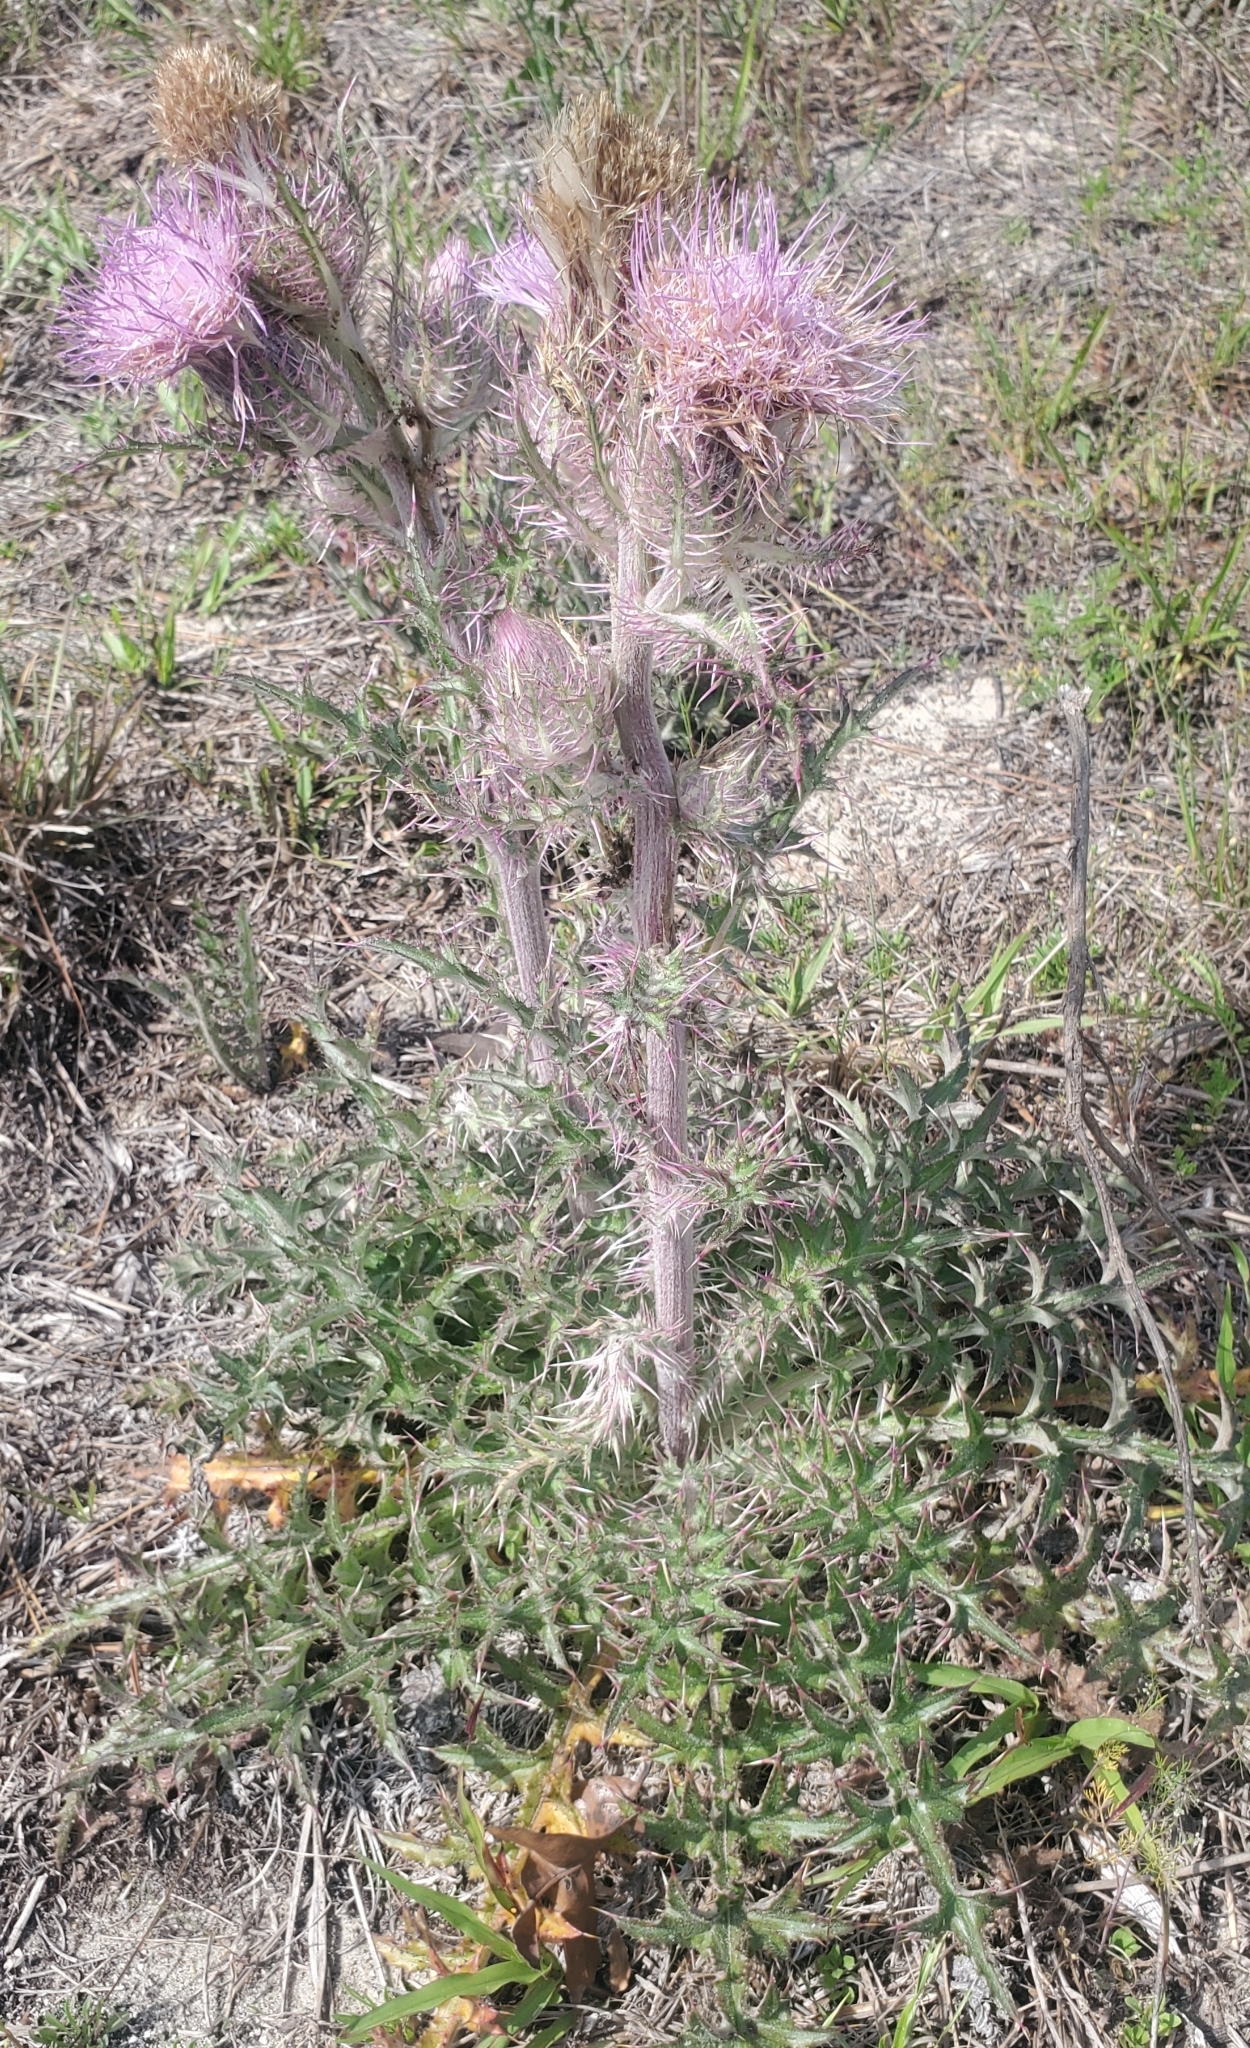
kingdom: Plantae
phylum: Tracheophyta
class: Magnoliopsida
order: Asterales
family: Asteraceae
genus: Cirsium
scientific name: Cirsium horridulum
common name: Bristly thistle
